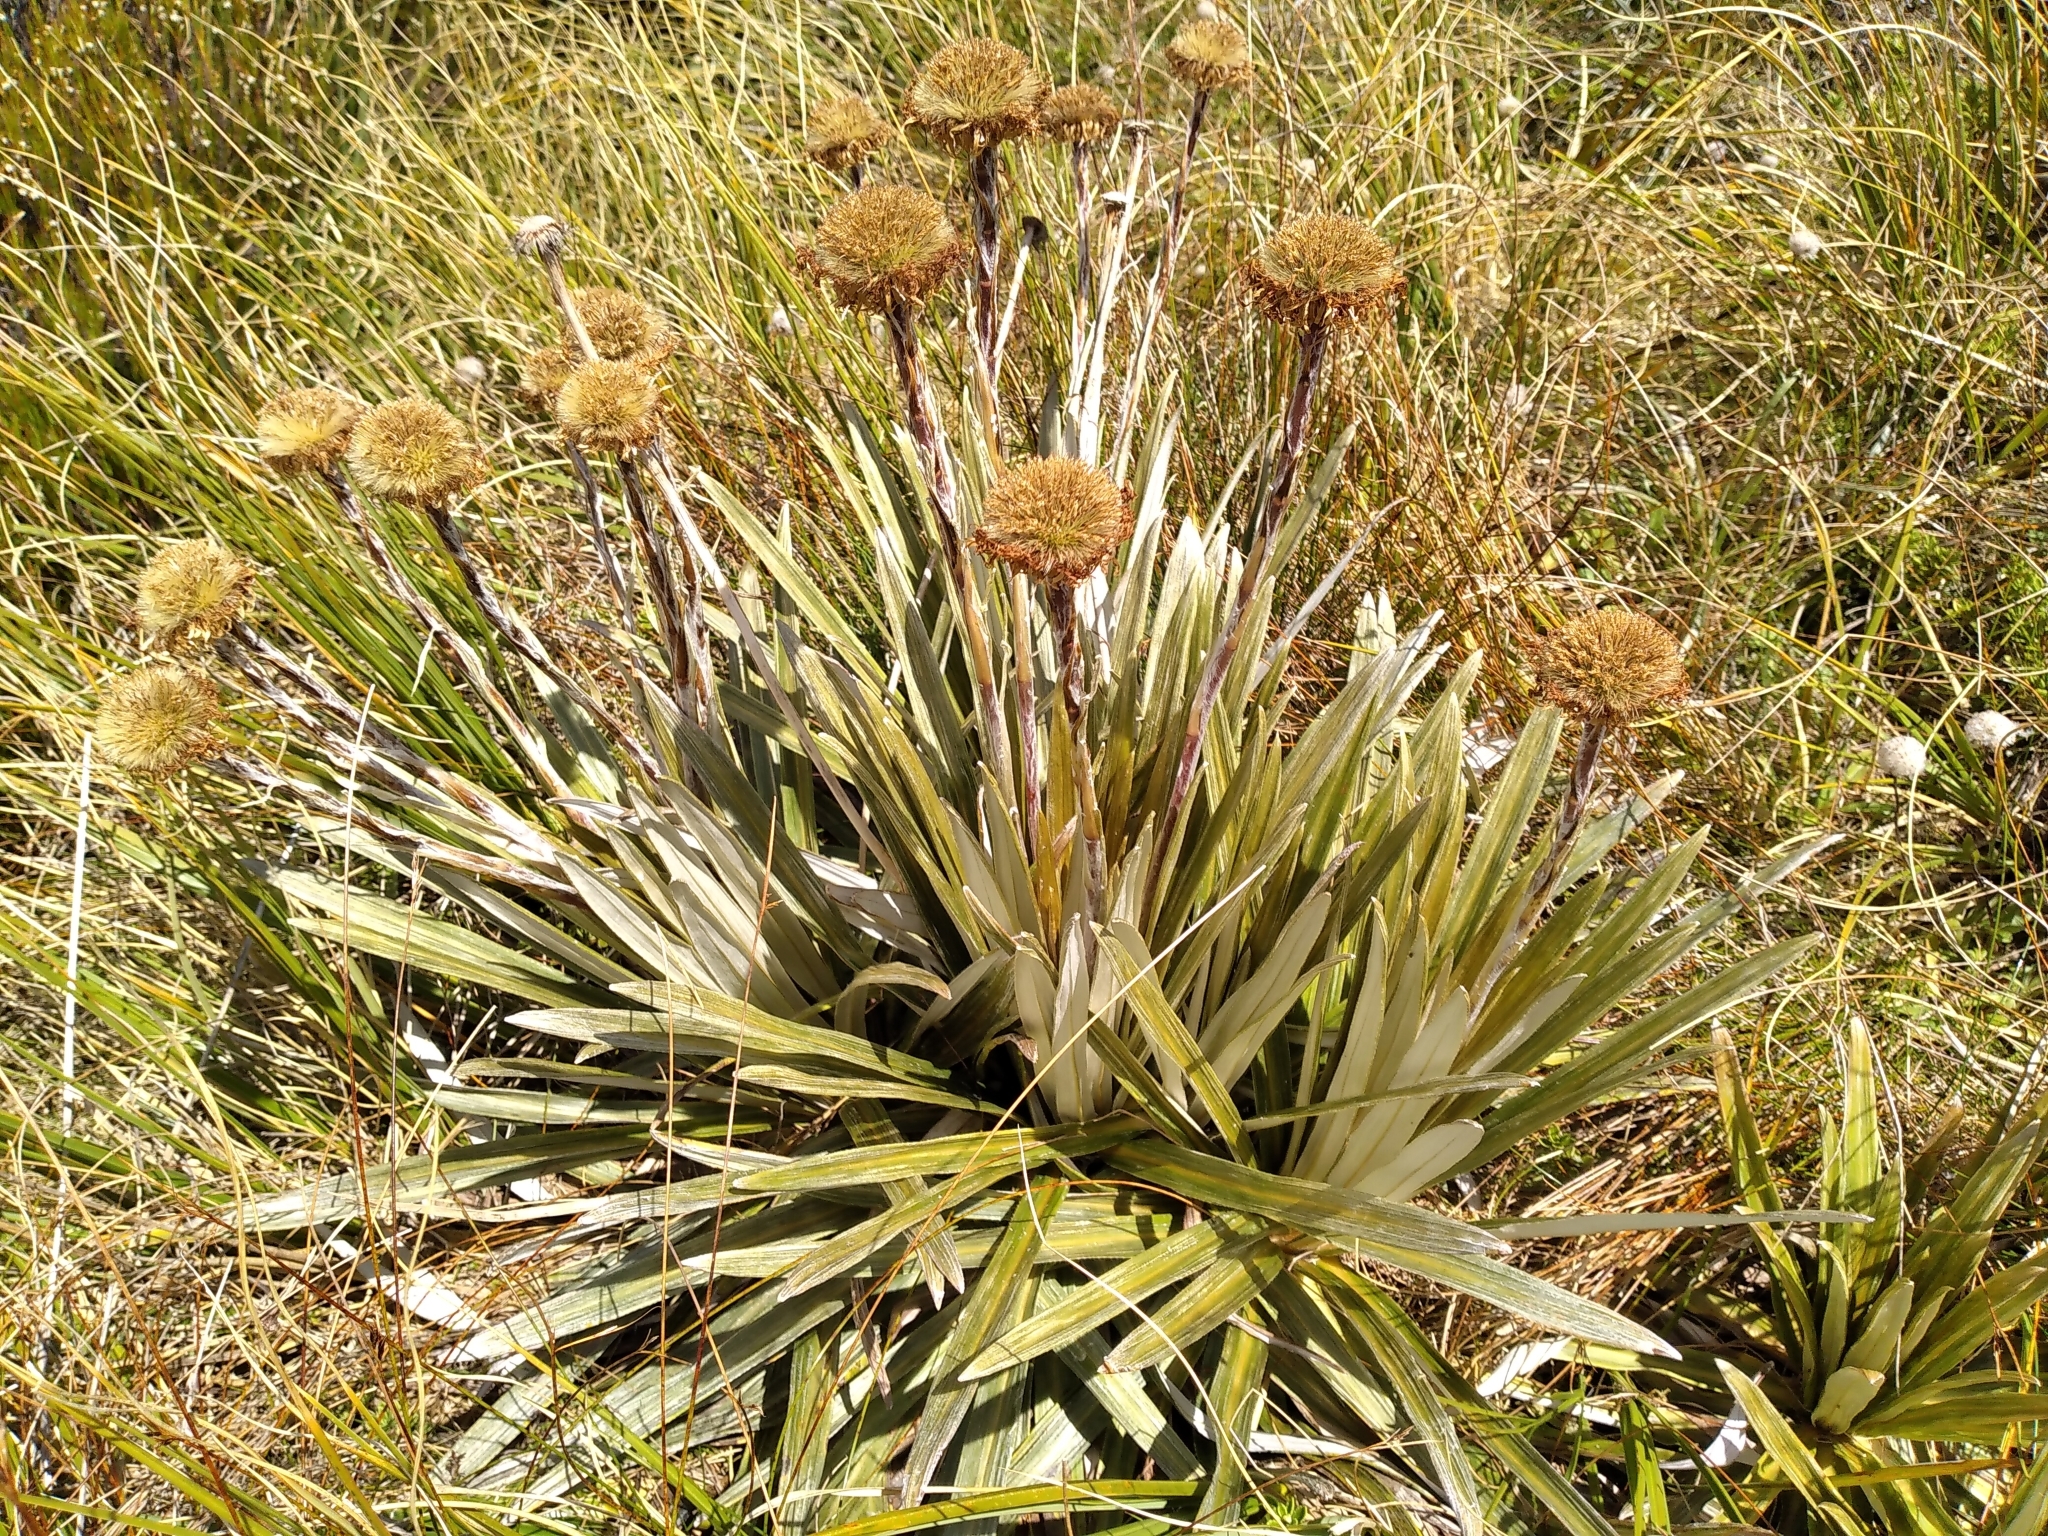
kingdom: Plantae
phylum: Tracheophyta
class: Magnoliopsida
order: Asterales
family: Asteraceae
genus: Celmisia
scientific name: Celmisia armstrongii
